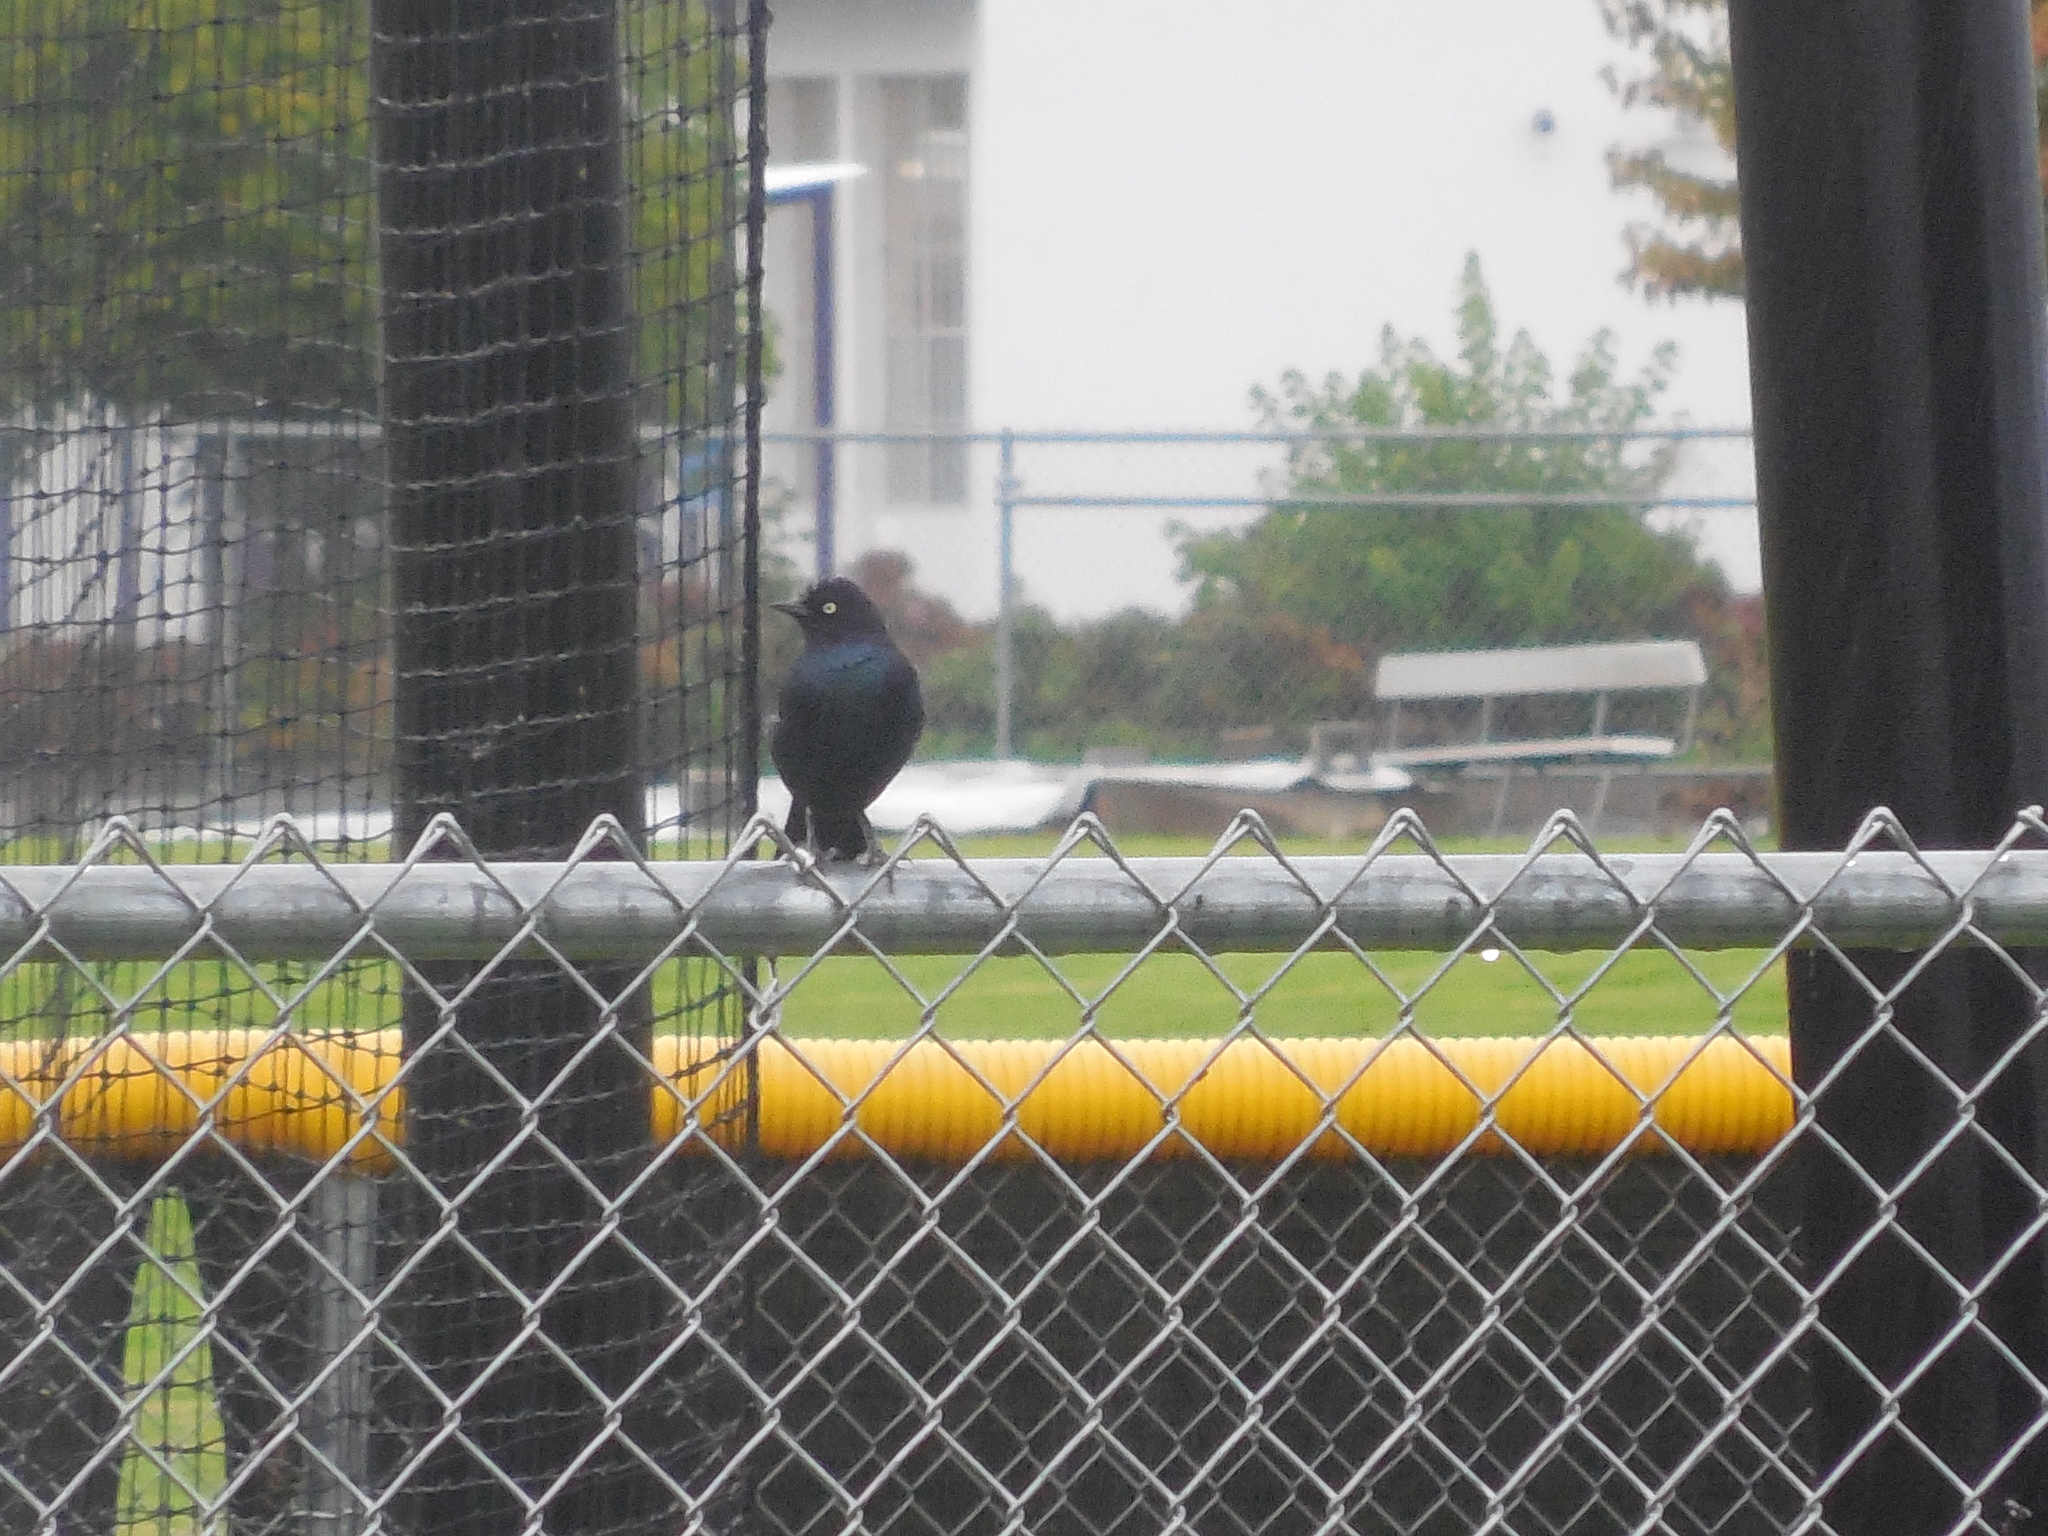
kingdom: Animalia
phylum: Chordata
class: Aves
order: Passeriformes
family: Icteridae
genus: Euphagus
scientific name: Euphagus cyanocephalus
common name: Brewer's blackbird
